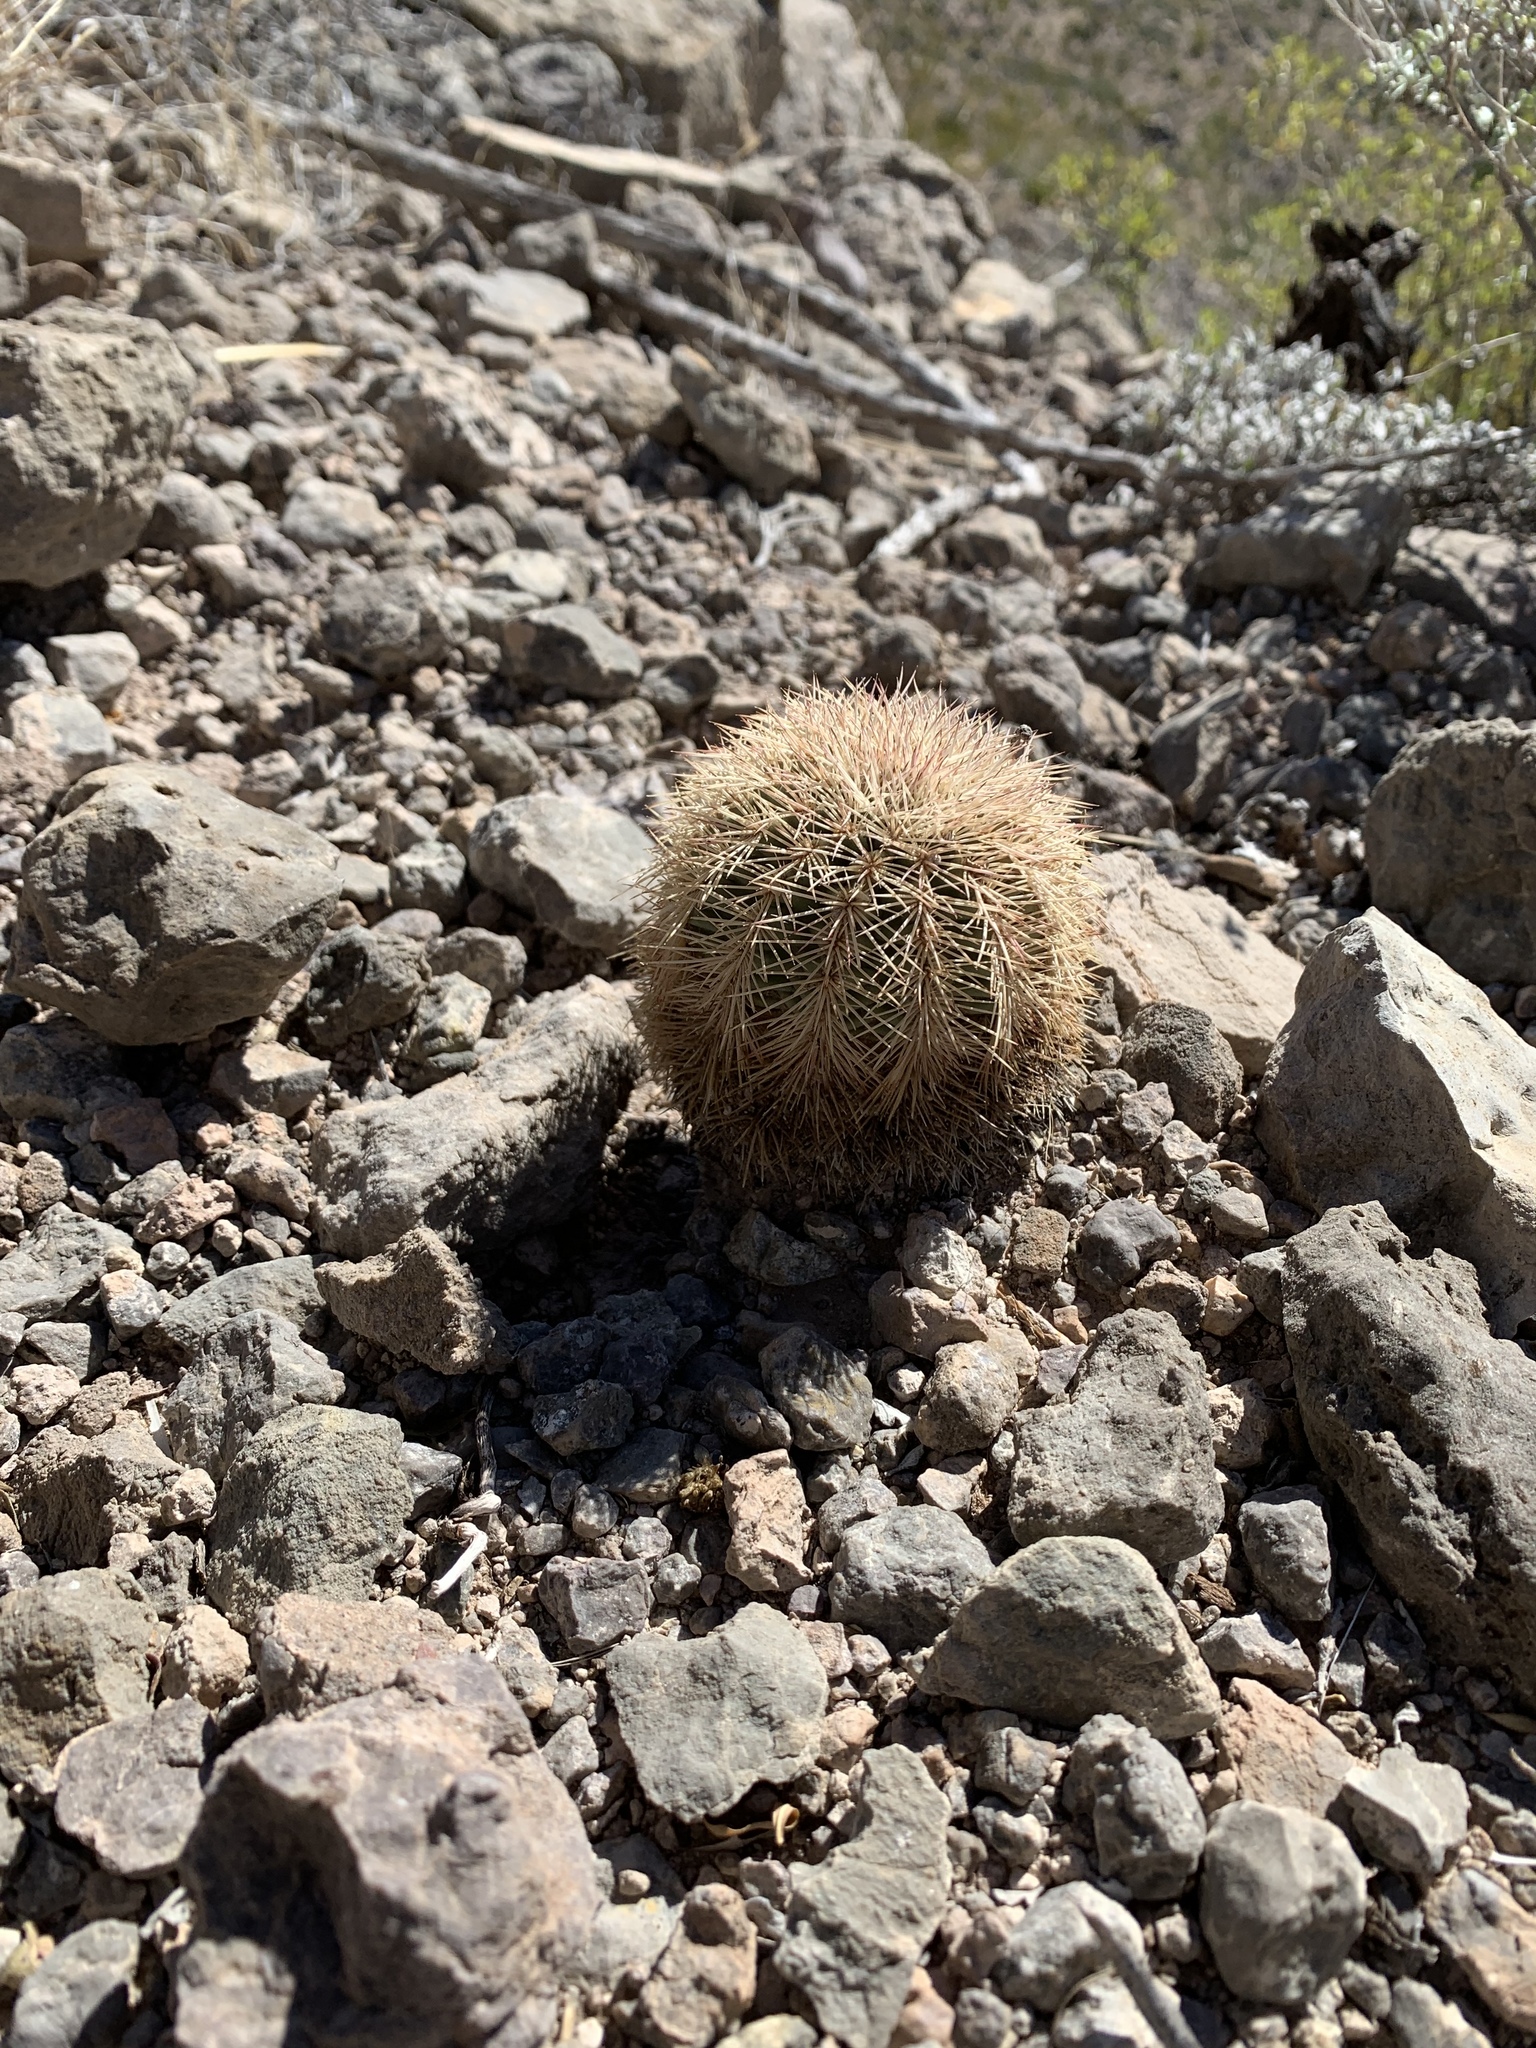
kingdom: Plantae
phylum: Tracheophyta
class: Magnoliopsida
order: Caryophyllales
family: Cactaceae
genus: Echinocereus
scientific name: Echinocereus dasyacanthus
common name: Spiny hedgehog cactus
